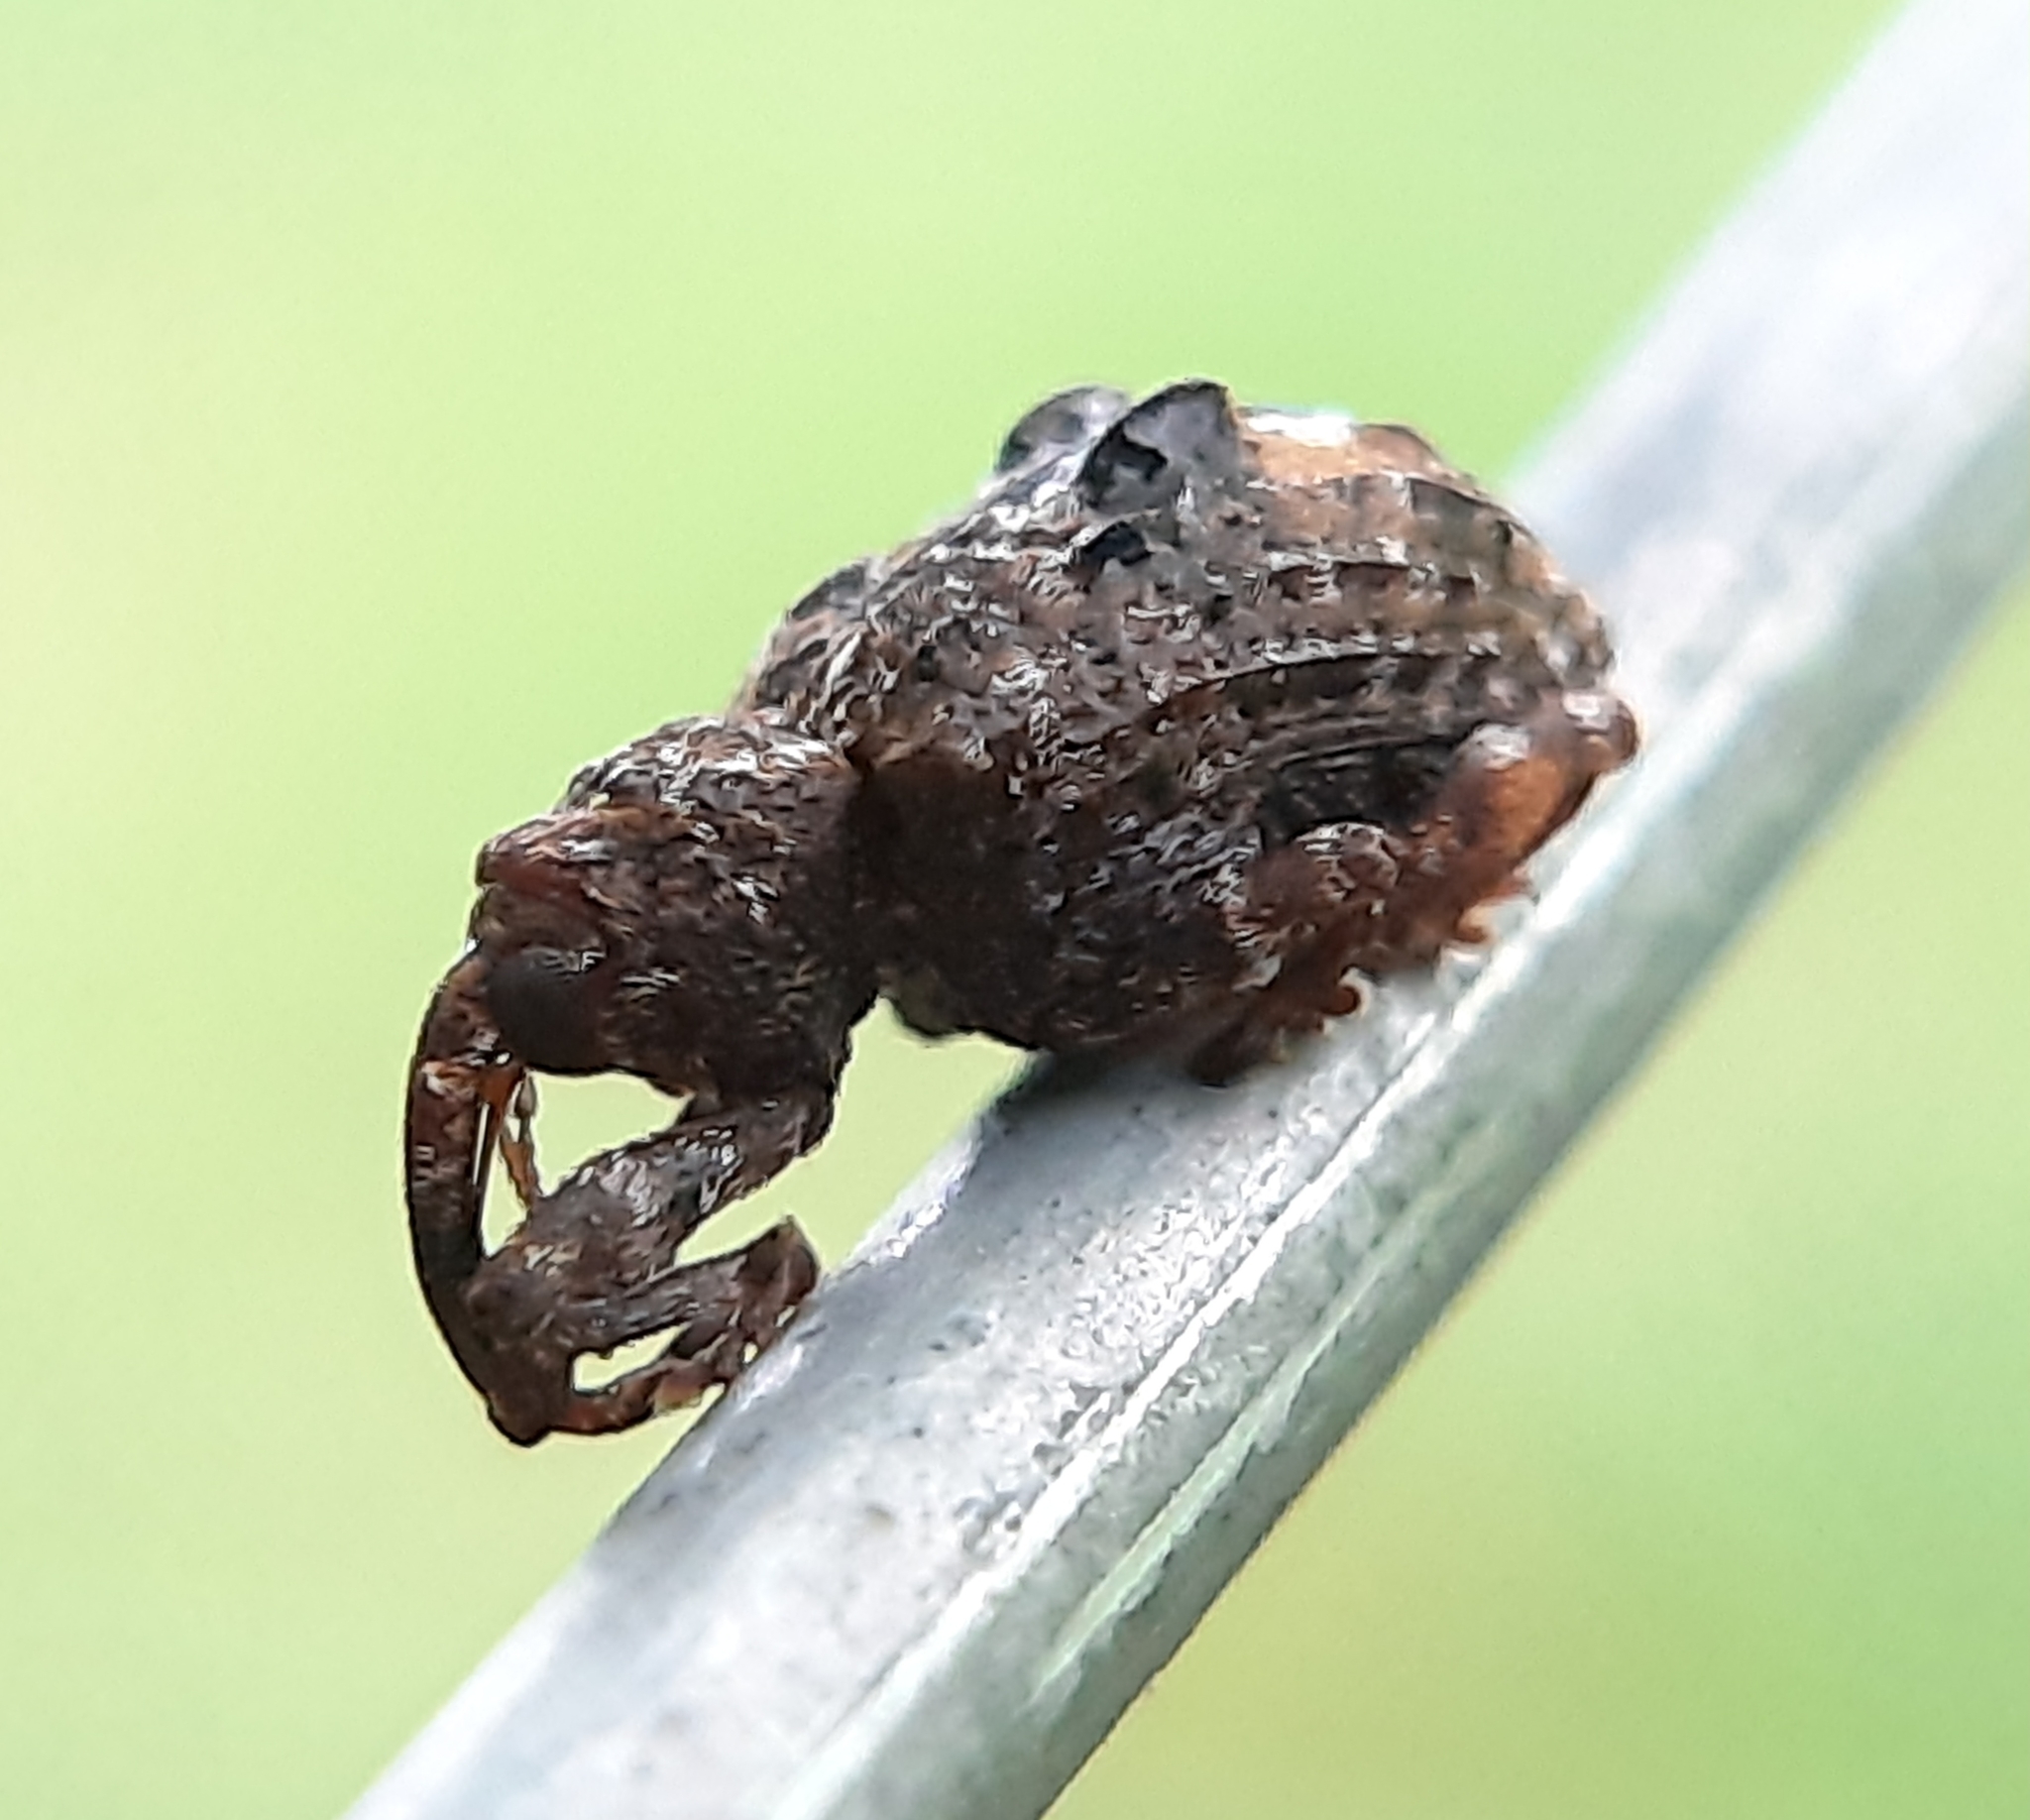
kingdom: Animalia
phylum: Arthropoda
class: Insecta
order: Coleoptera
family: Curculionidae
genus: Conotrachelus
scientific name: Conotrachelus nenuphar
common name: Plum curculio
